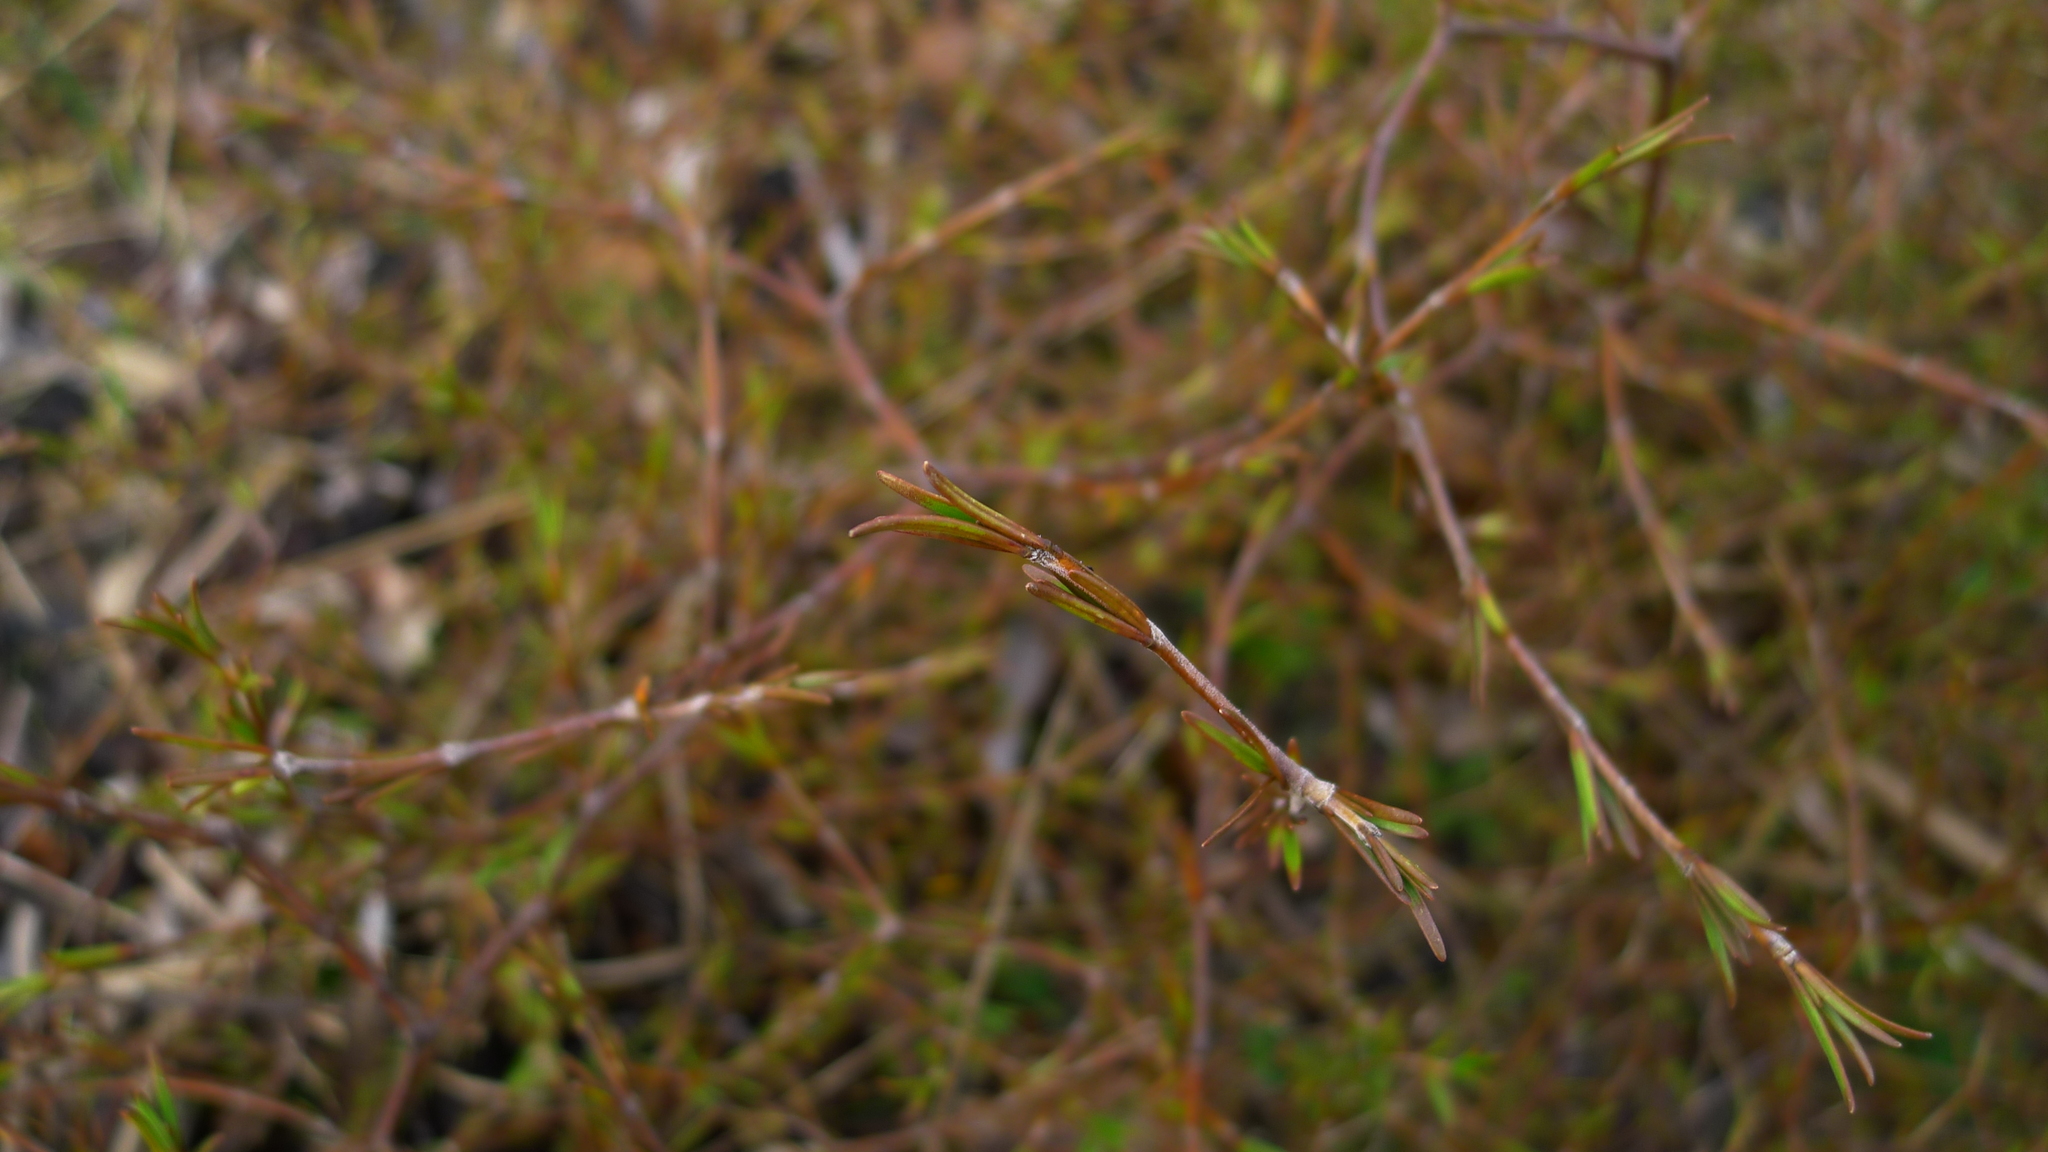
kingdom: Plantae
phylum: Tracheophyta
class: Magnoliopsida
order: Gentianales
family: Rubiaceae
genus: Coprosma
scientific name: Coprosma acerosa
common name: Sand coprosma
